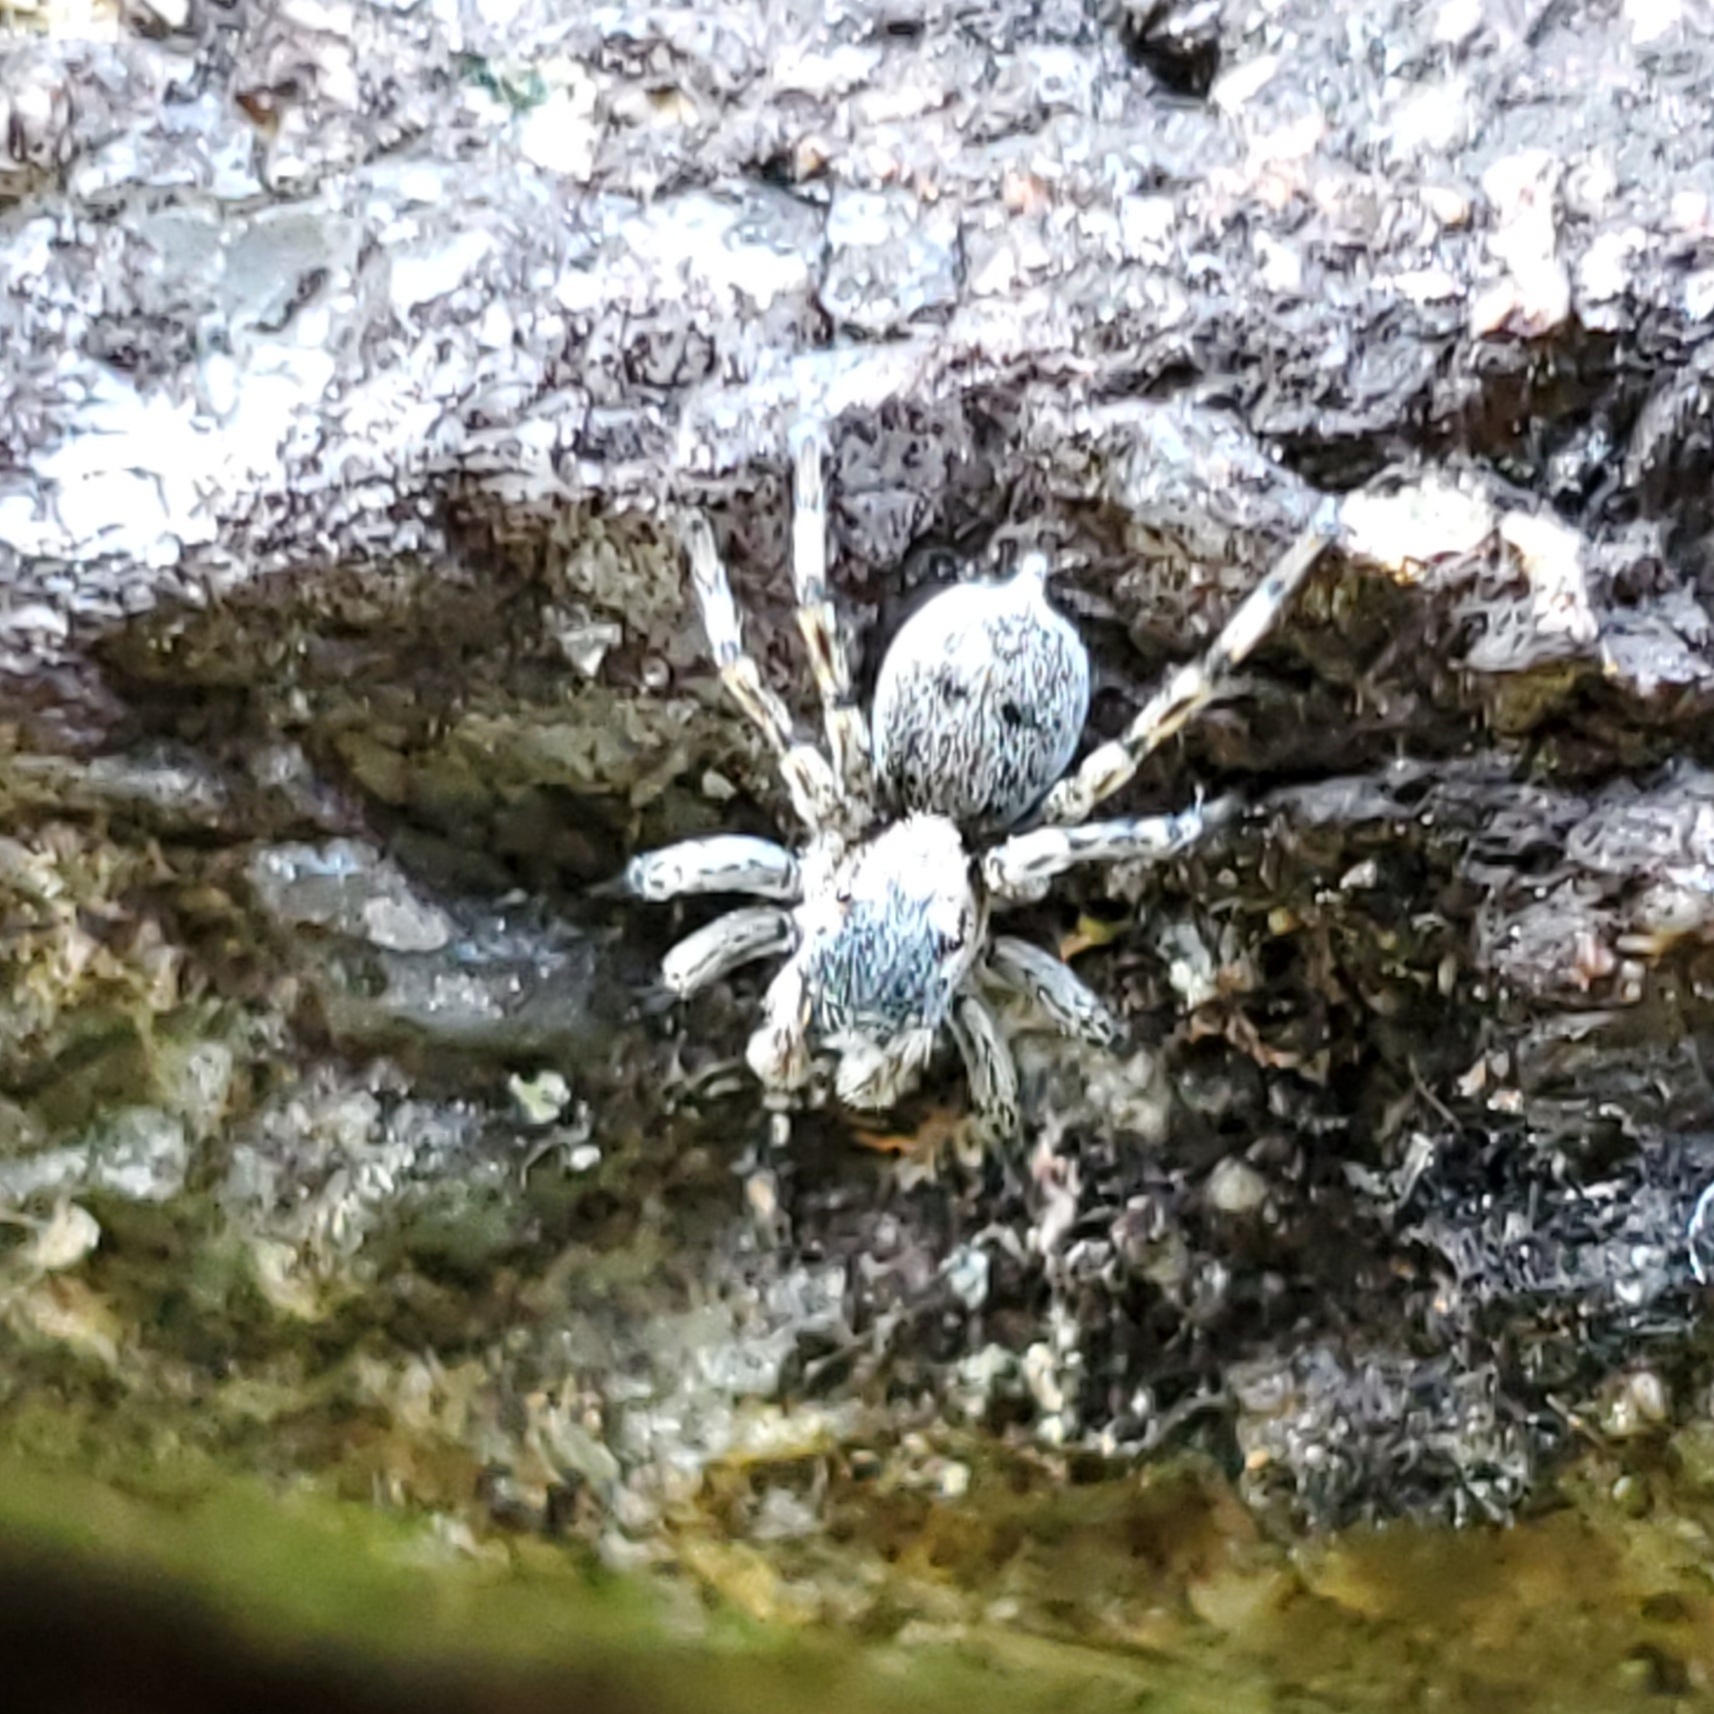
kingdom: Animalia
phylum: Arthropoda
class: Arachnida
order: Araneae
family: Salticidae
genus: Naphrys
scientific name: Naphrys pulex
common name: Flea jumping spider
